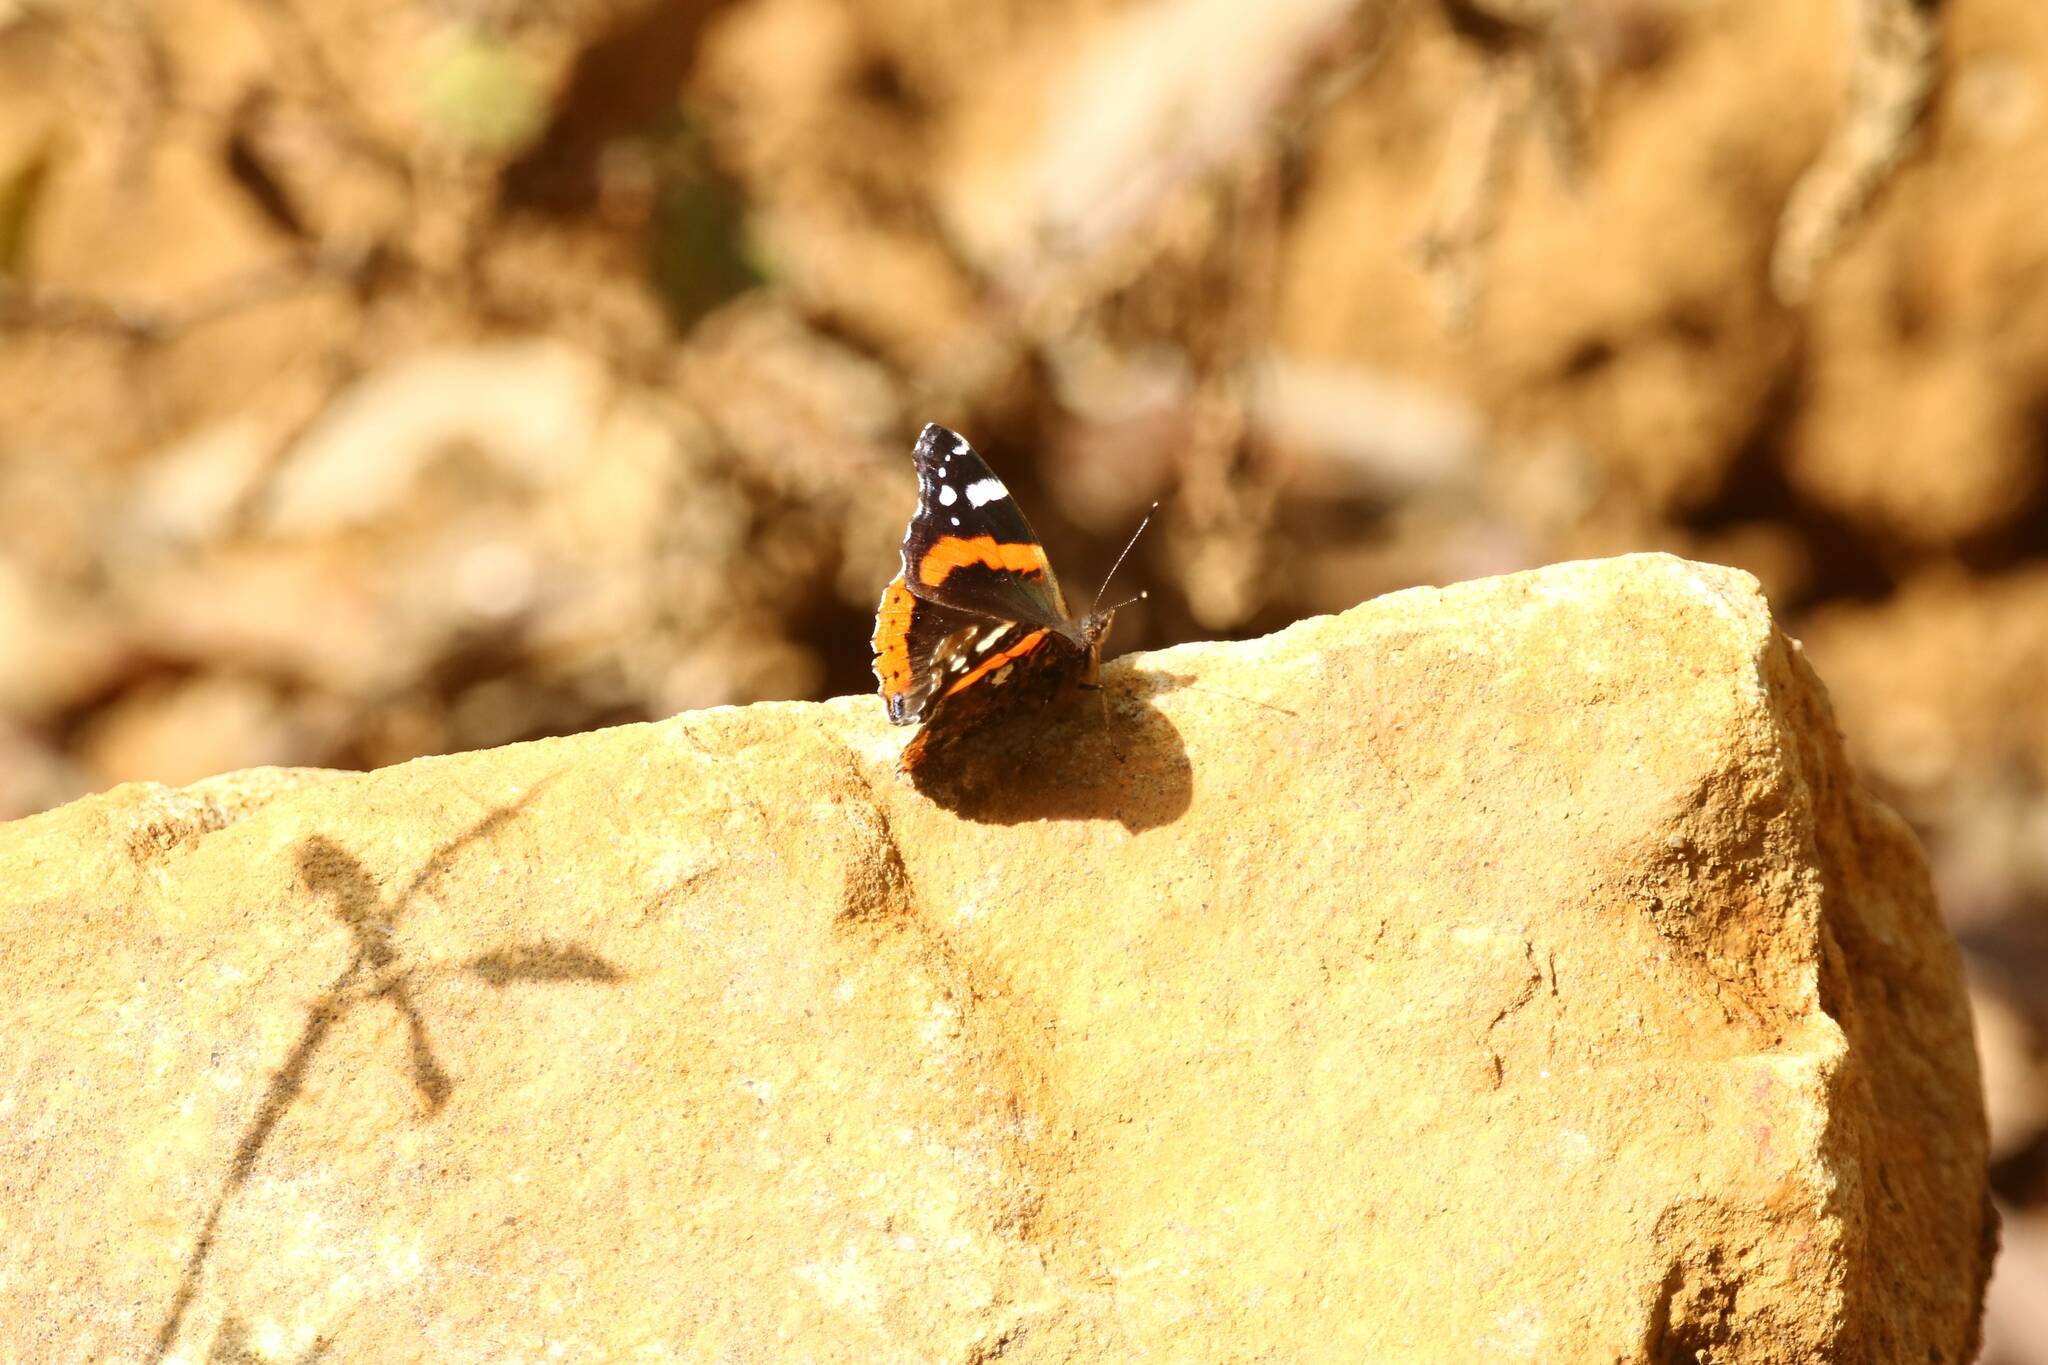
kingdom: Animalia
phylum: Arthropoda
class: Insecta
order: Lepidoptera
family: Nymphalidae
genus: Vanessa
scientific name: Vanessa atalanta
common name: Red admiral
